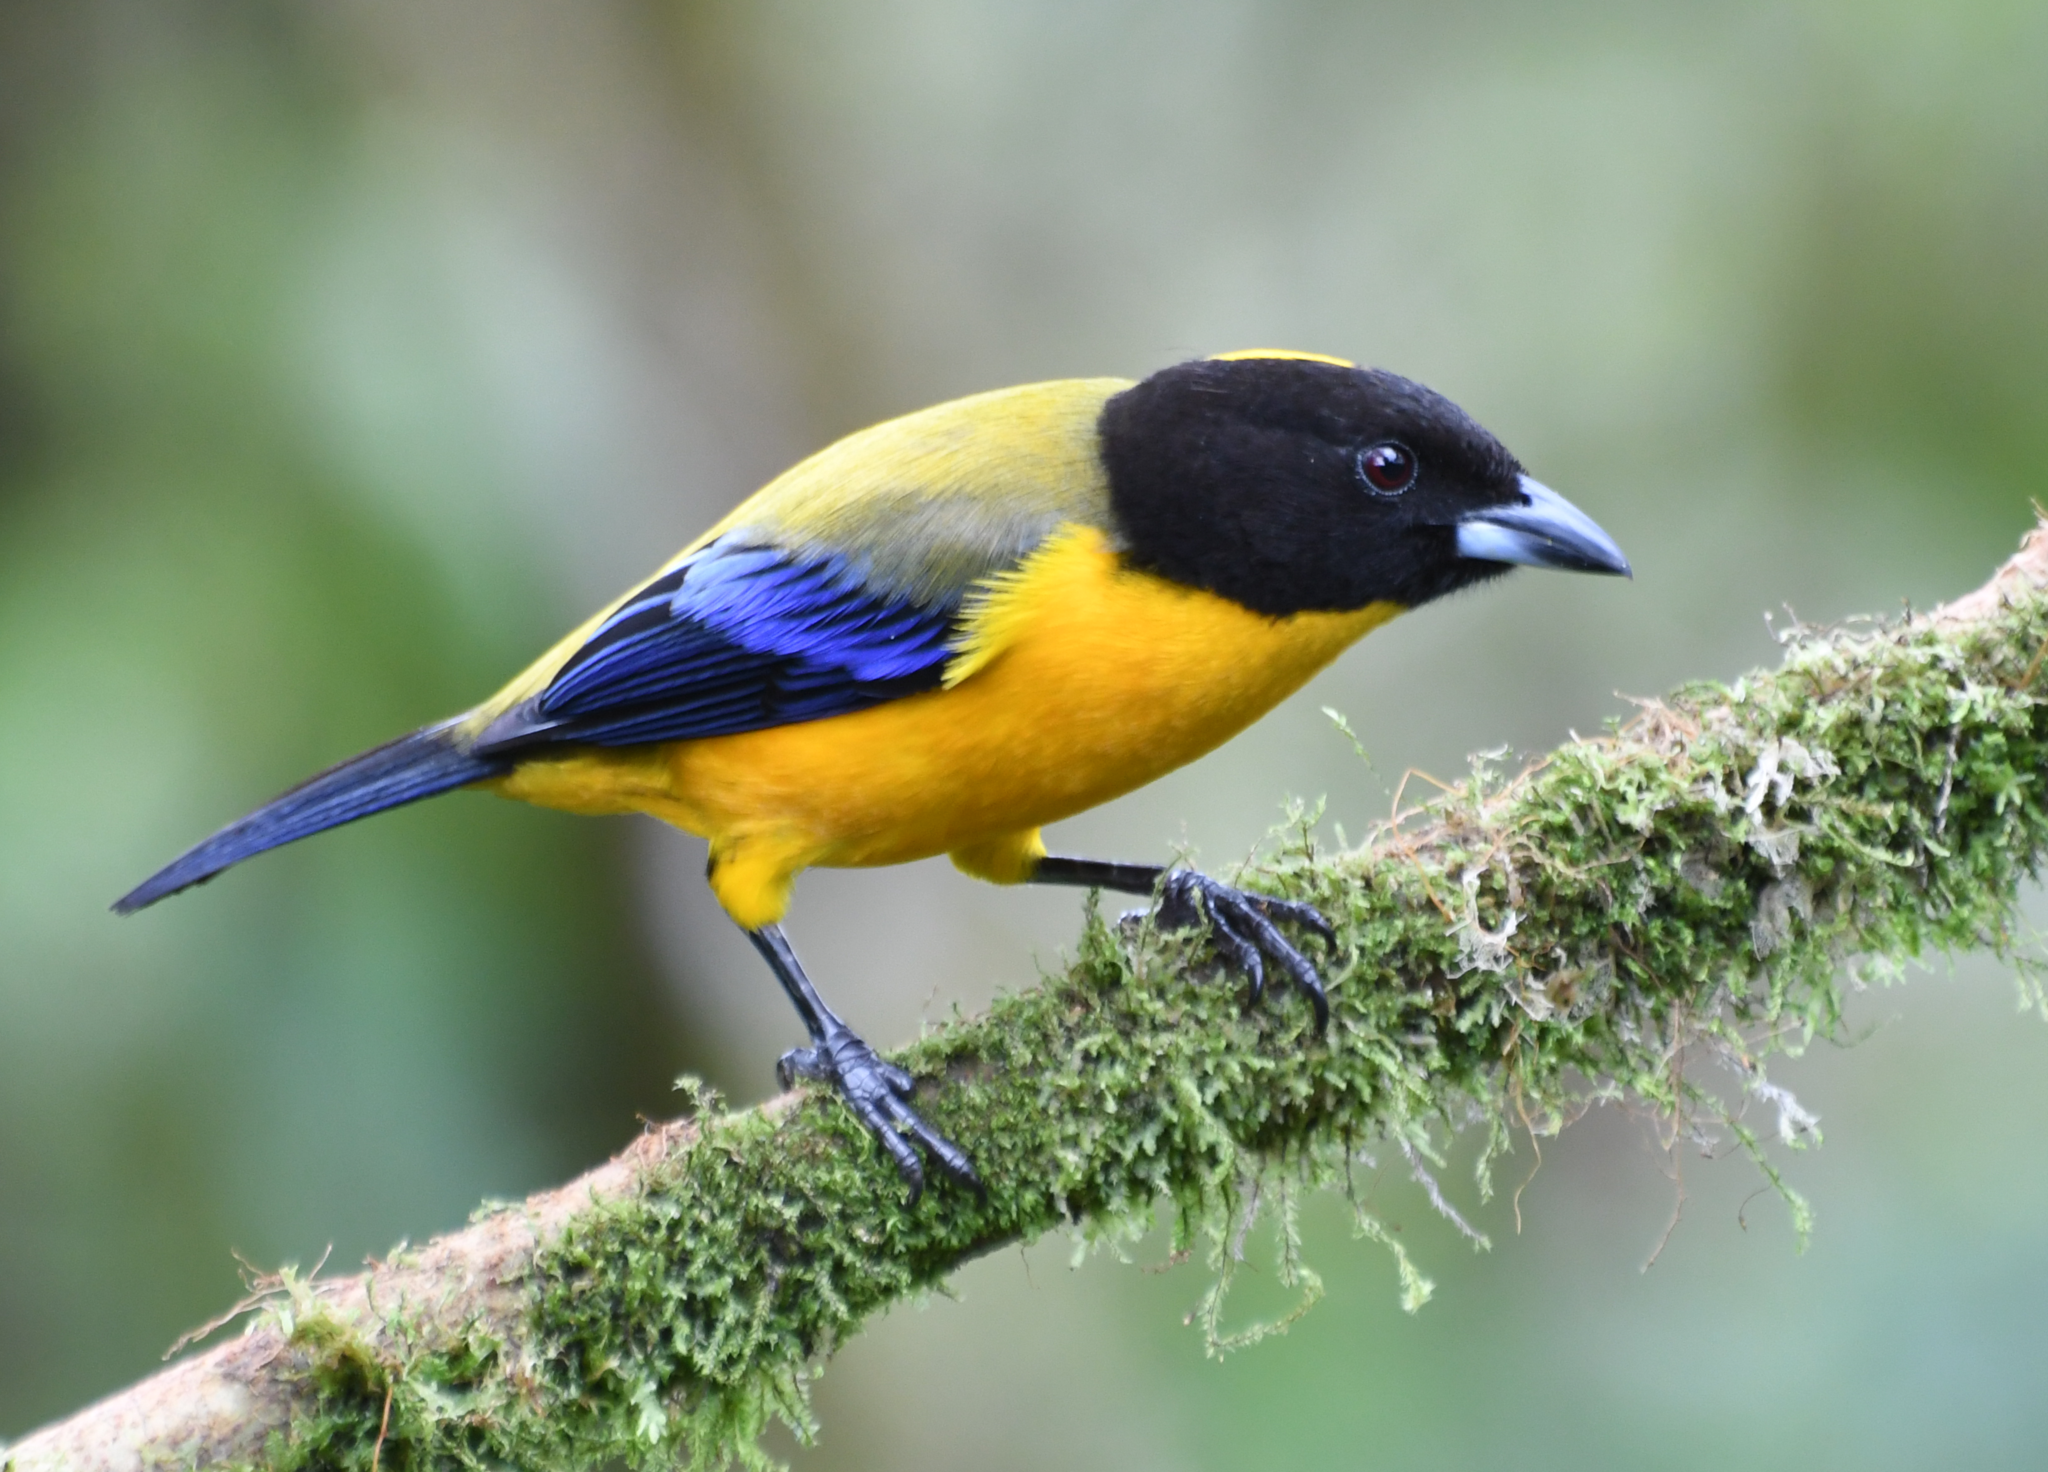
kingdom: Animalia
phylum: Chordata
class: Aves
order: Passeriformes
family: Thraupidae
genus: Anisognathus
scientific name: Anisognathus notabilis
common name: Black-chinned mountain tanager
